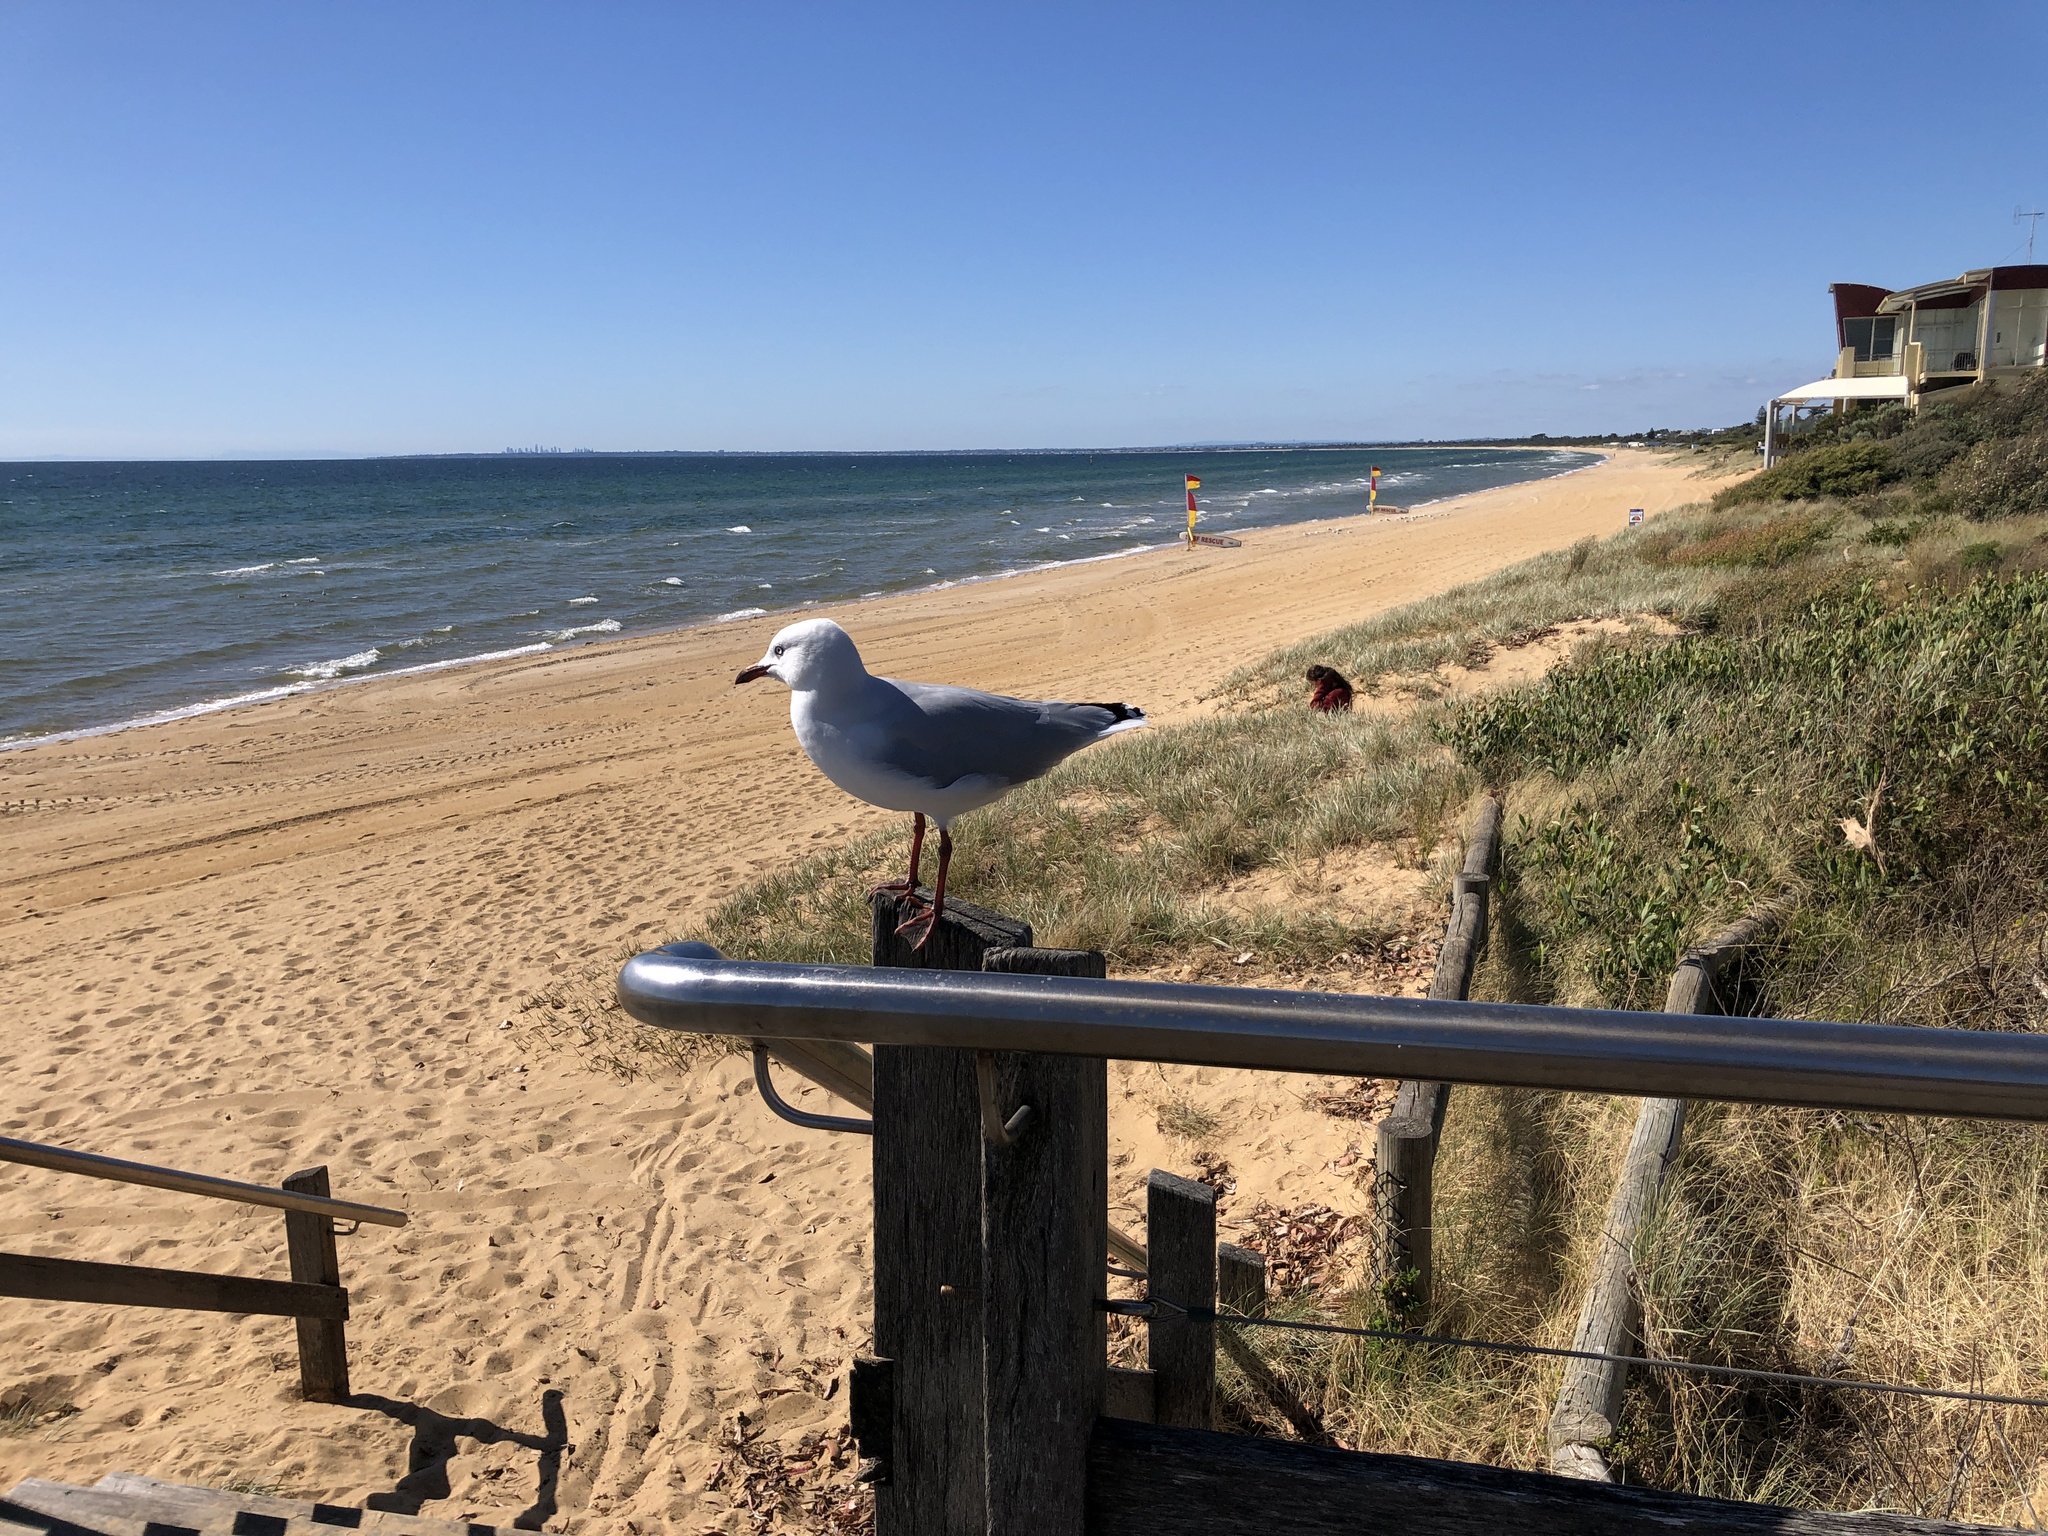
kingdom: Animalia
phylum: Chordata
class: Aves
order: Charadriiformes
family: Laridae
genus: Chroicocephalus
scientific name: Chroicocephalus novaehollandiae
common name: Silver gull
